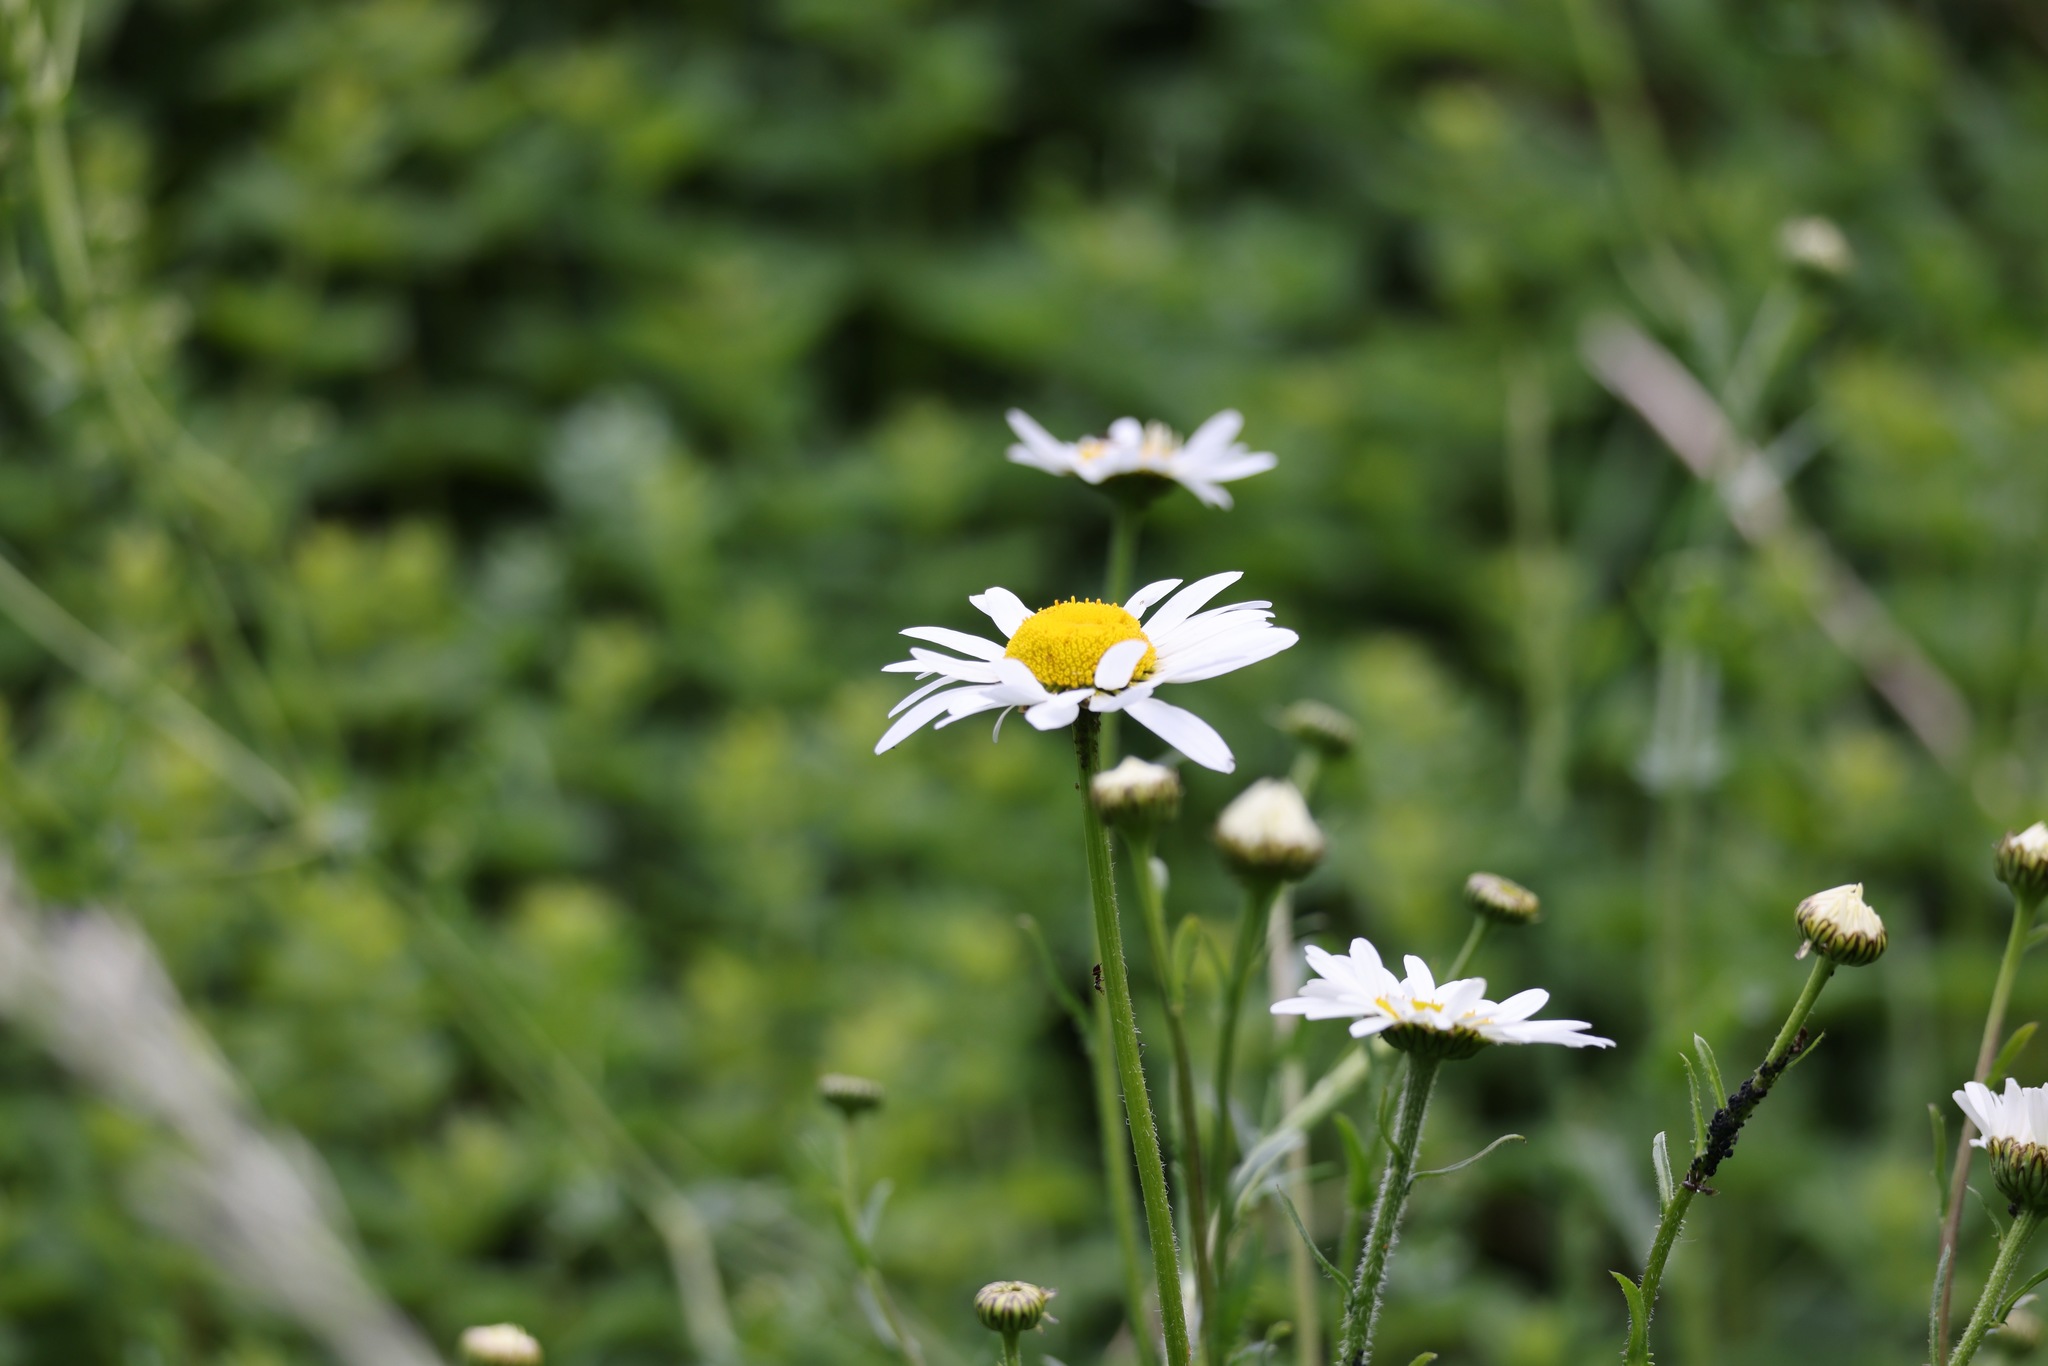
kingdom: Plantae
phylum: Tracheophyta
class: Magnoliopsida
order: Asterales
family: Asteraceae
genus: Leucanthemum
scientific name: Leucanthemum vulgare
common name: Oxeye daisy
